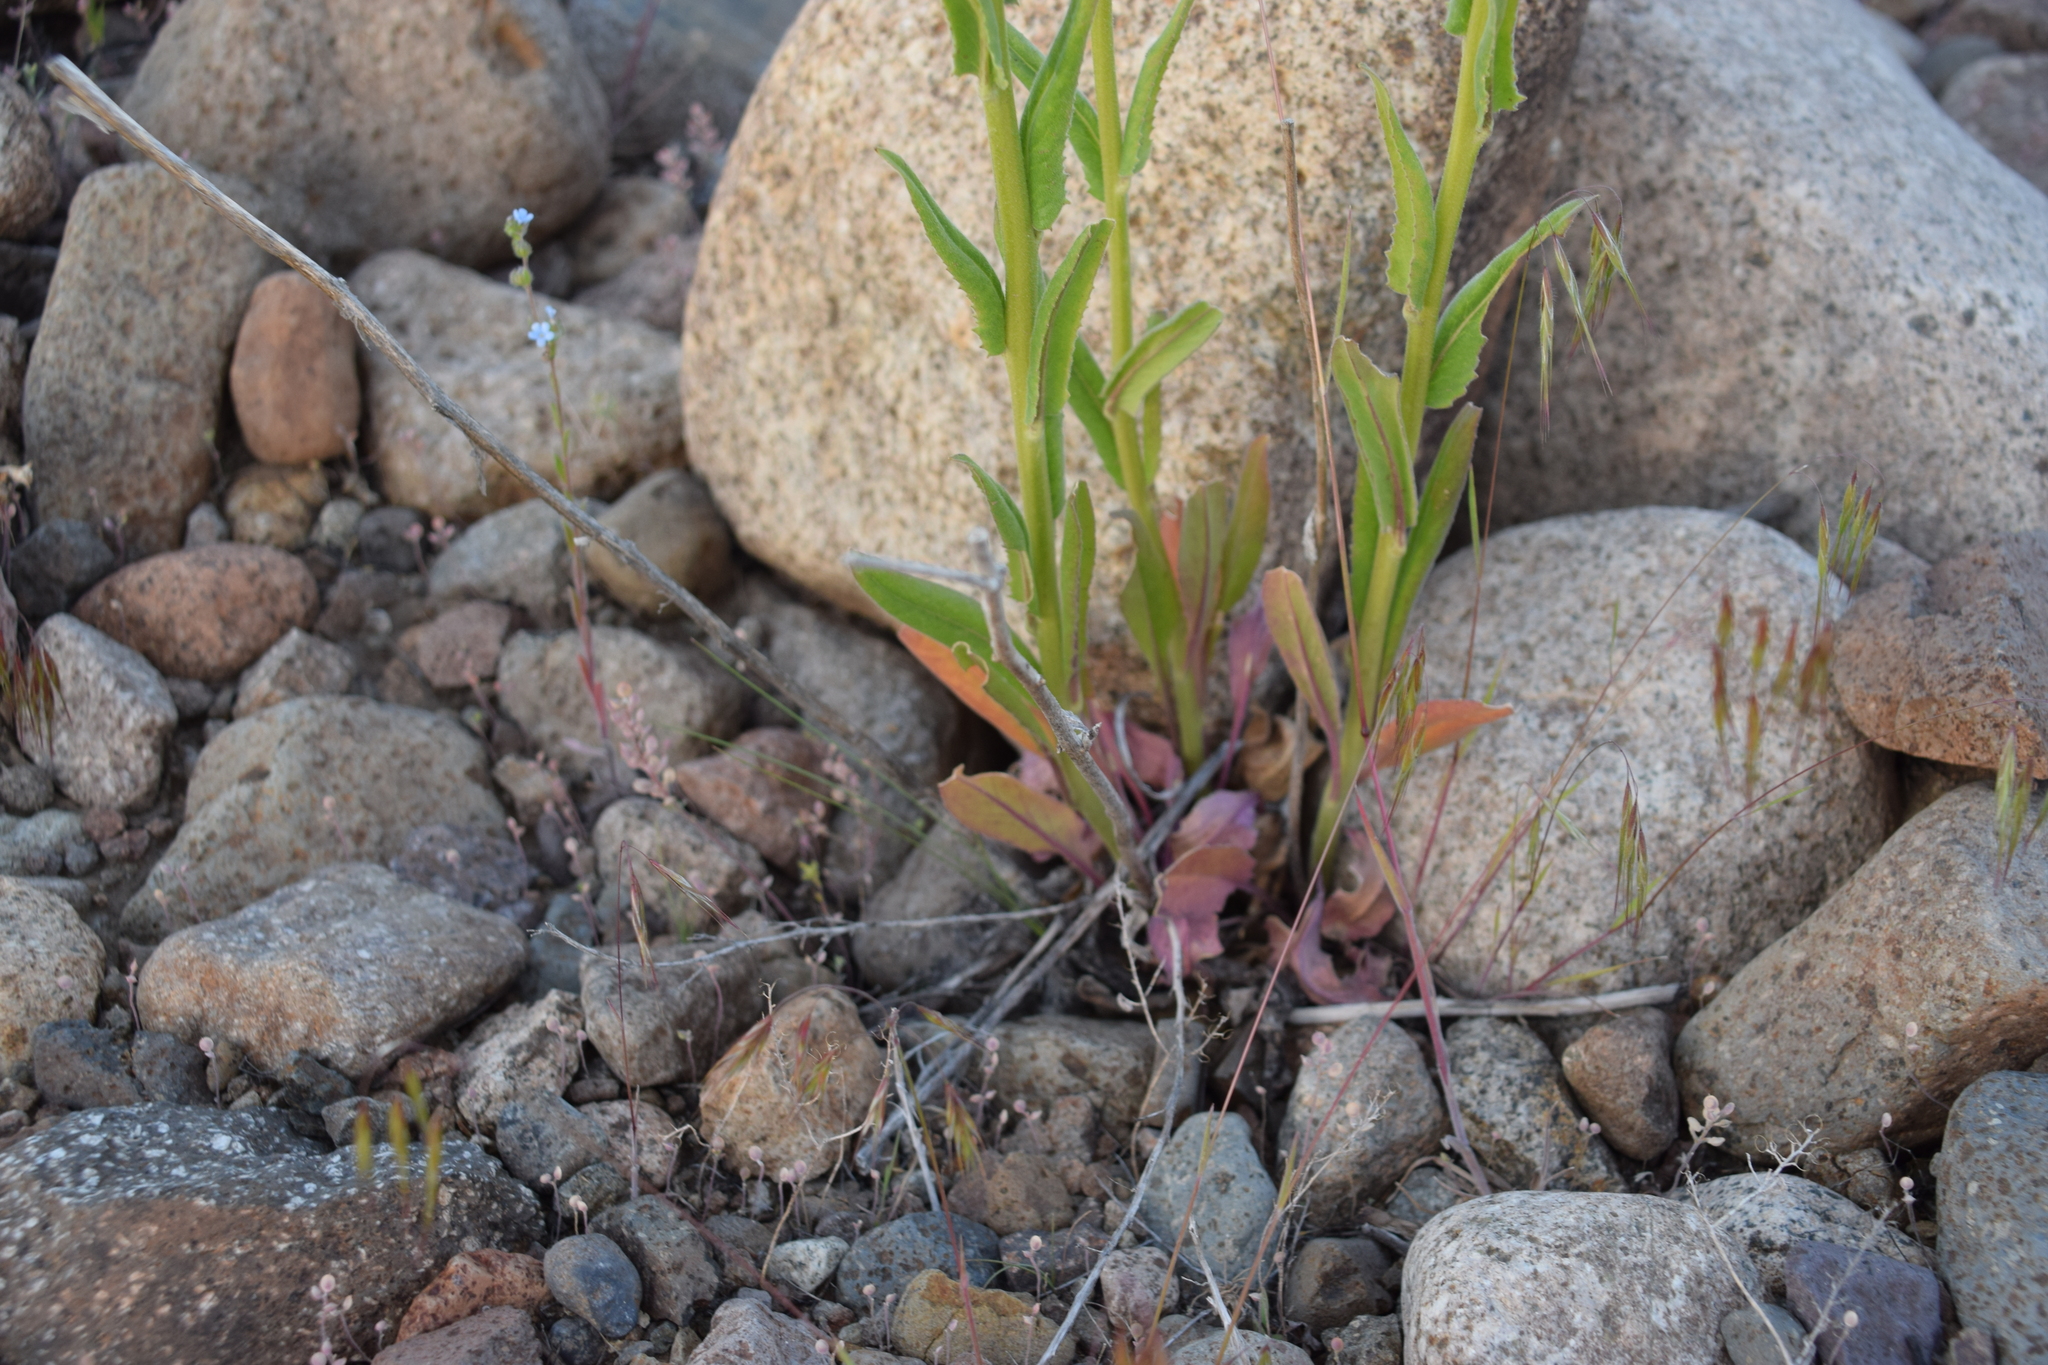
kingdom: Plantae
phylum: Tracheophyta
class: Magnoliopsida
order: Brassicales
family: Brassicaceae
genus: Hesperis
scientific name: Hesperis matronalis
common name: Dame's-violet
